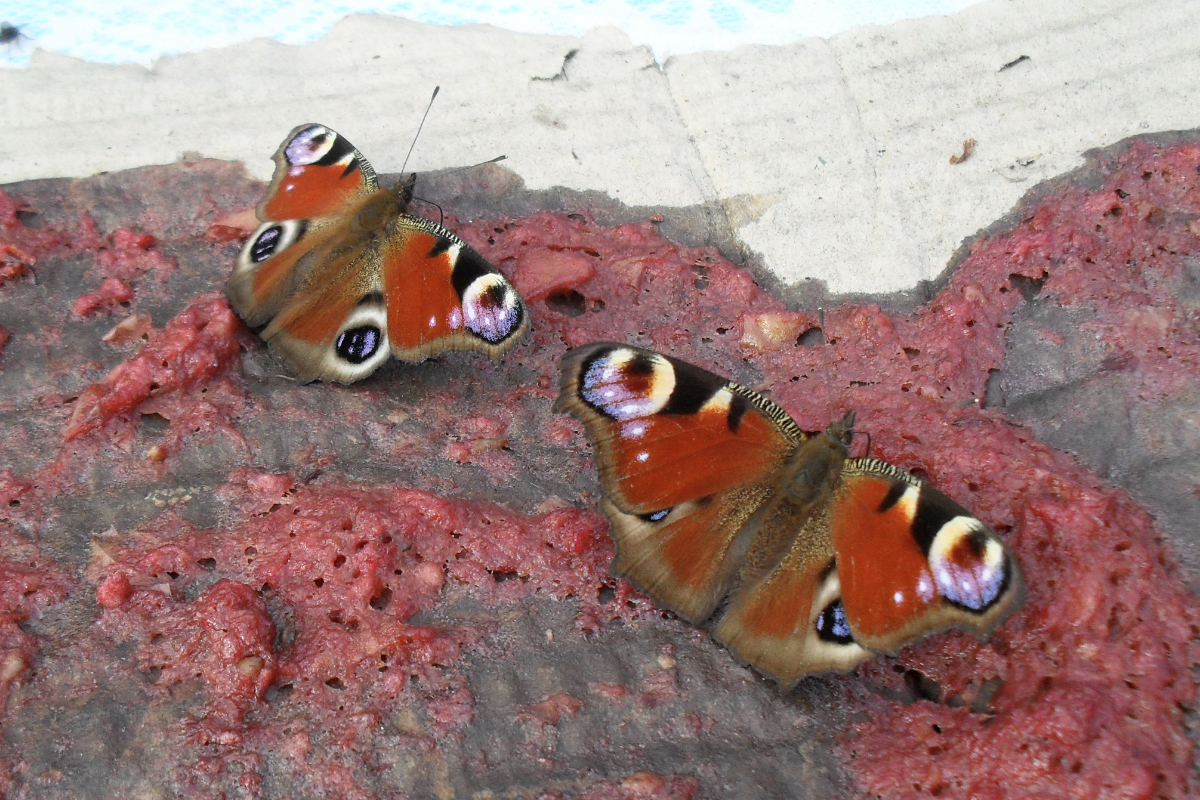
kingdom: Animalia
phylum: Arthropoda
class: Insecta
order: Lepidoptera
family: Nymphalidae
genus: Aglais
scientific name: Aglais io
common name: Peacock
